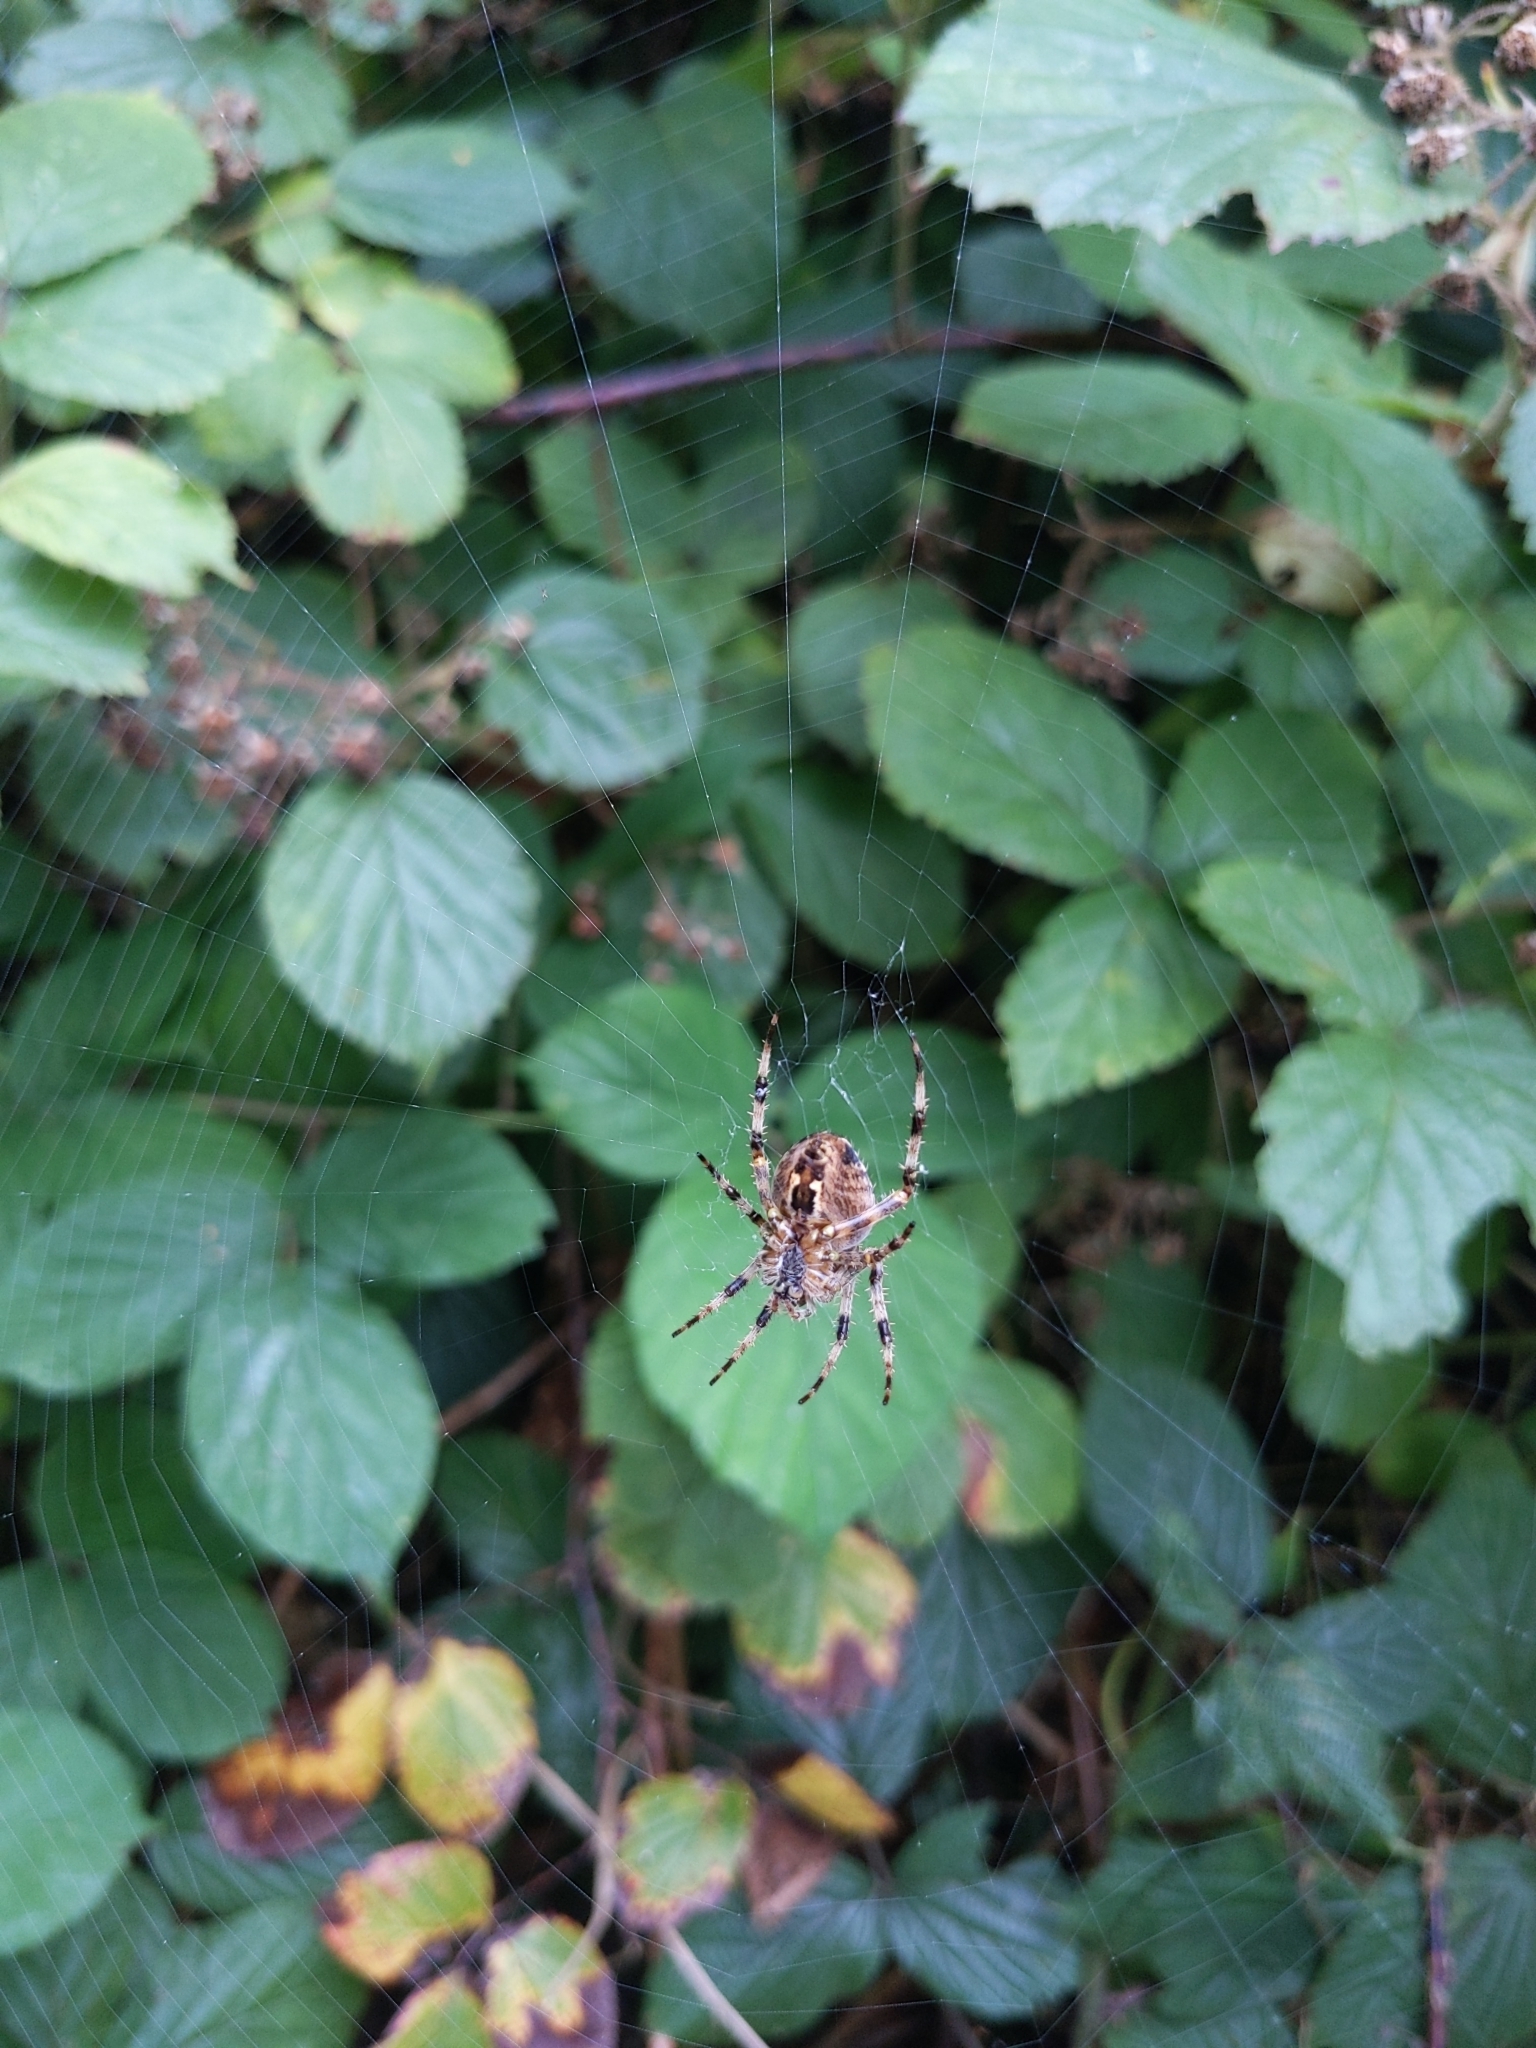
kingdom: Animalia
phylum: Arthropoda
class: Arachnida
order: Araneae
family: Araneidae
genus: Araneus
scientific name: Araneus diadematus
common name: Cross orbweaver
